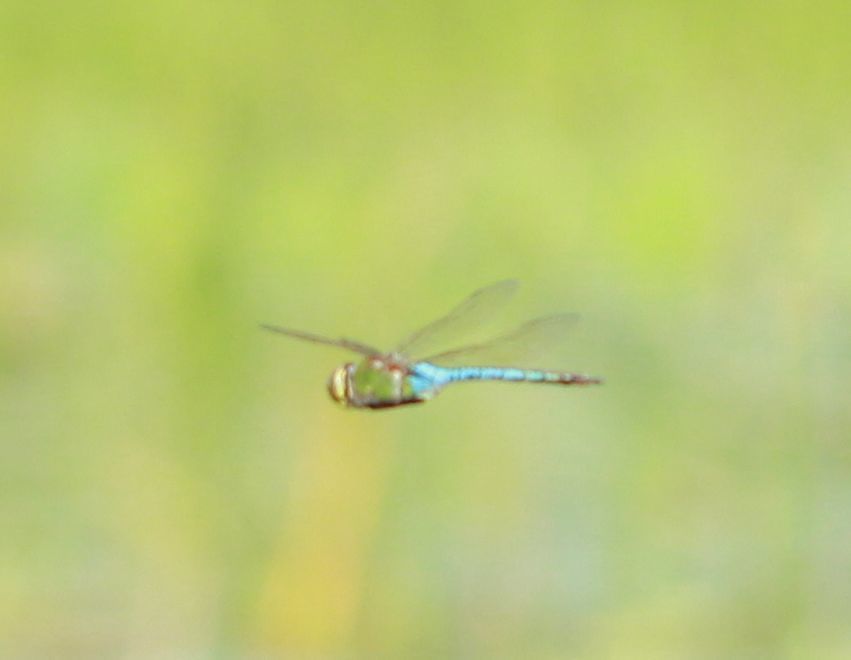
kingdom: Animalia
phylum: Arthropoda
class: Insecta
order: Odonata
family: Aeshnidae
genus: Anax
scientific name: Anax junius
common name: Common green darner
